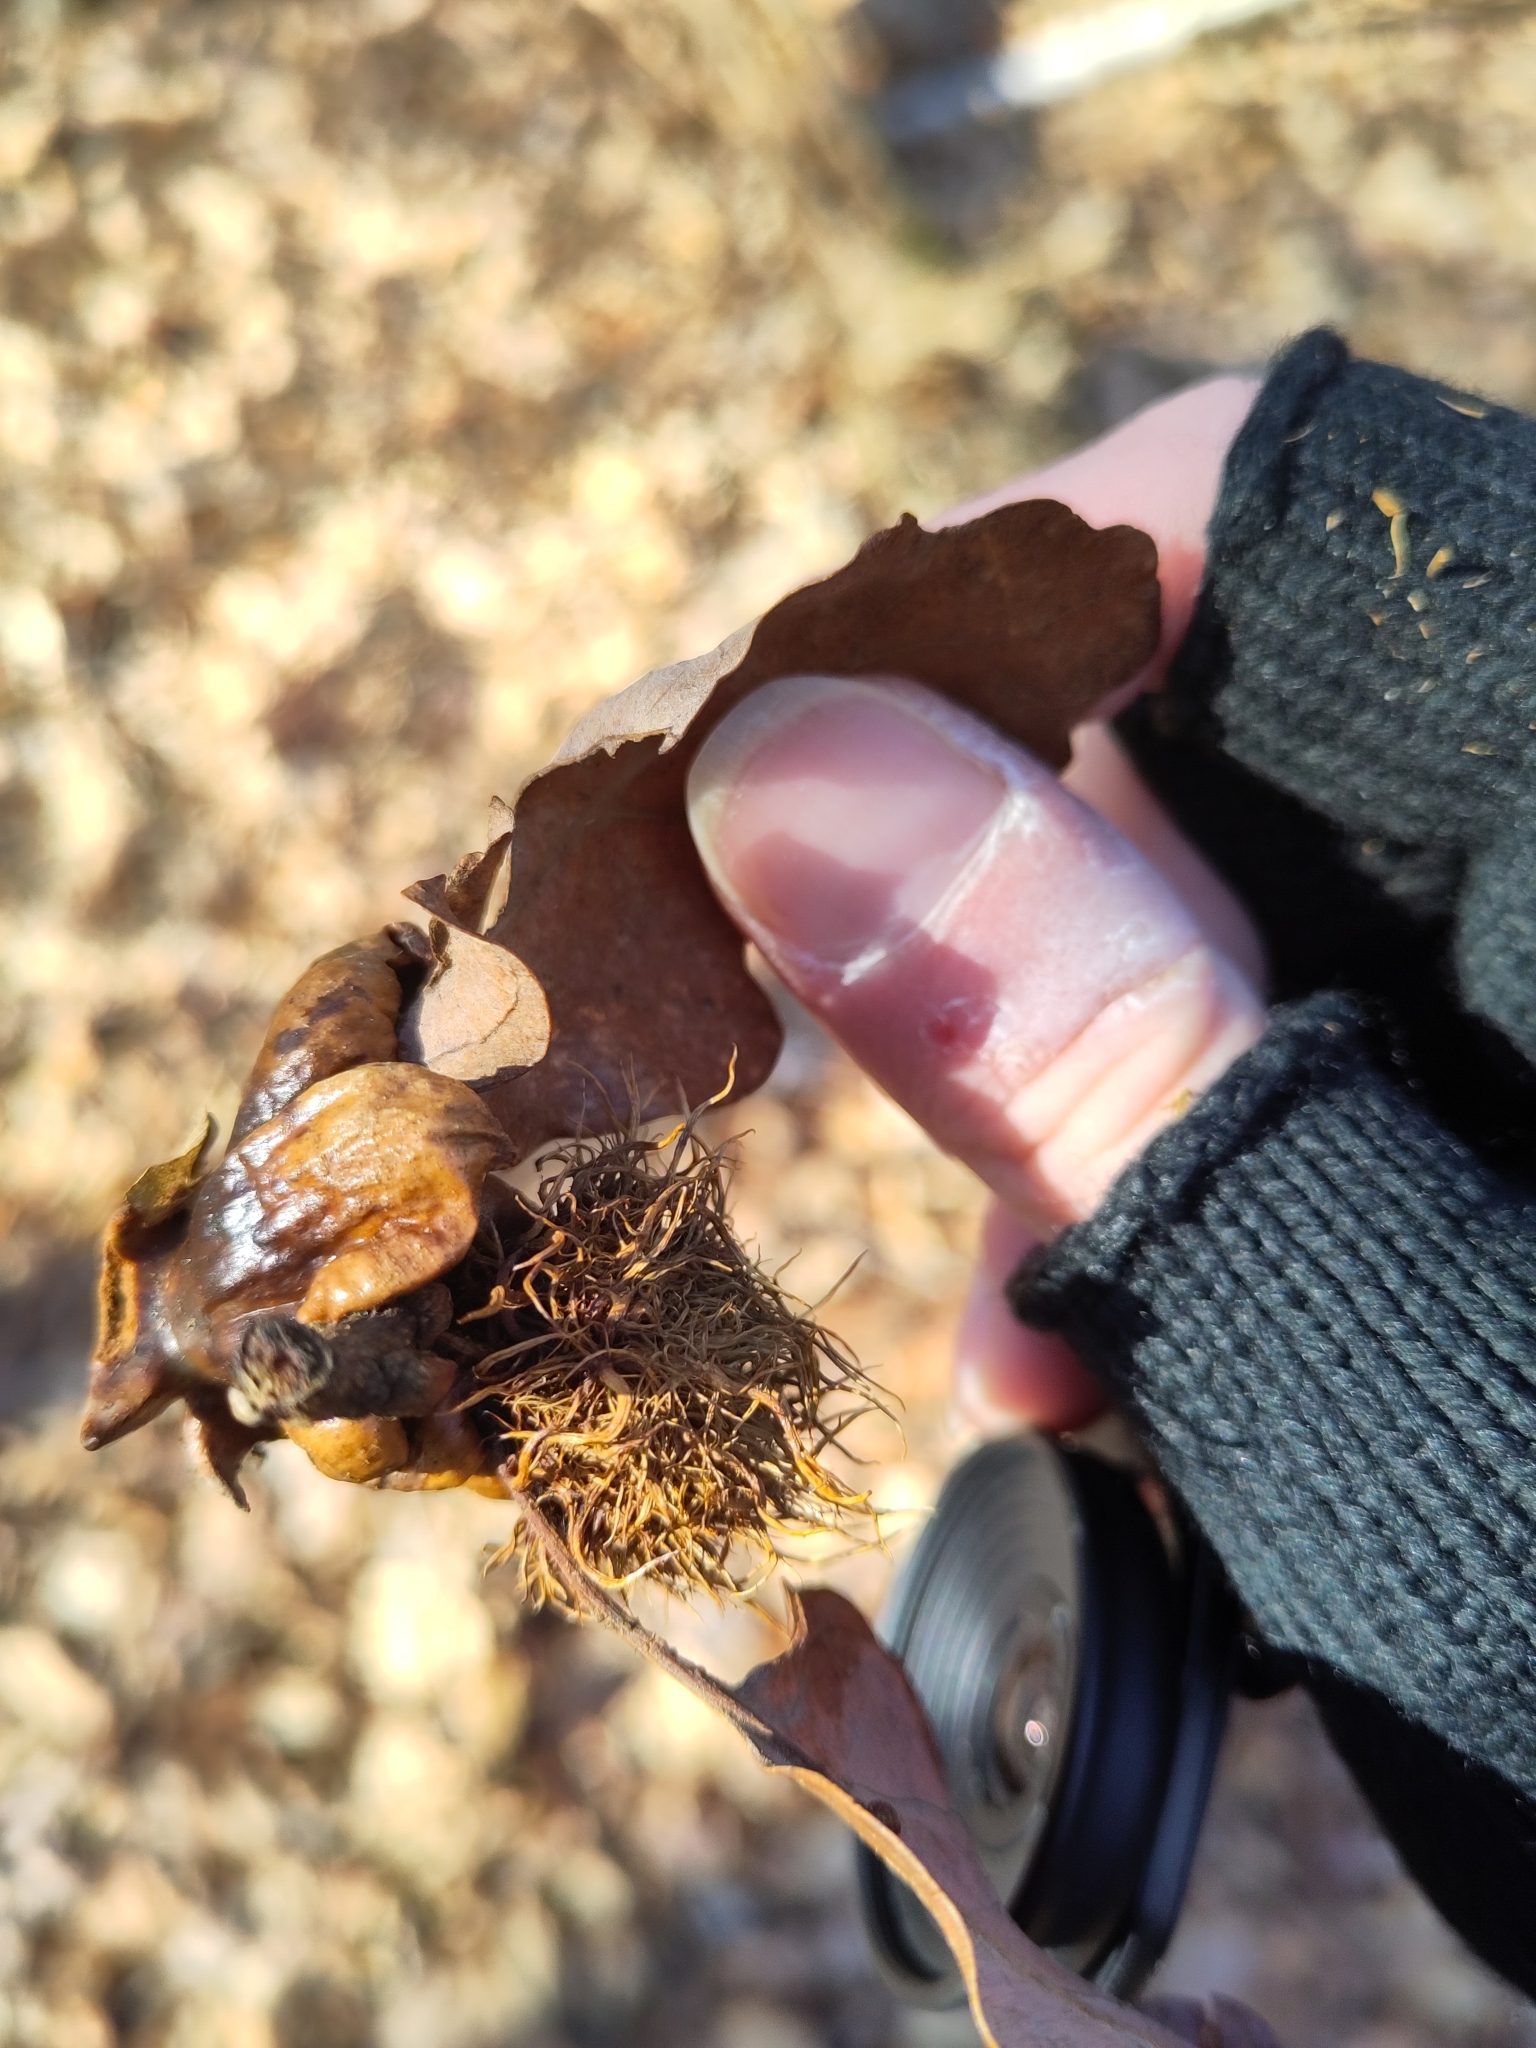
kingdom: Animalia
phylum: Arthropoda
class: Insecta
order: Hymenoptera
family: Cynipidae
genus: Andricus
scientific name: Andricus caputmedusae
